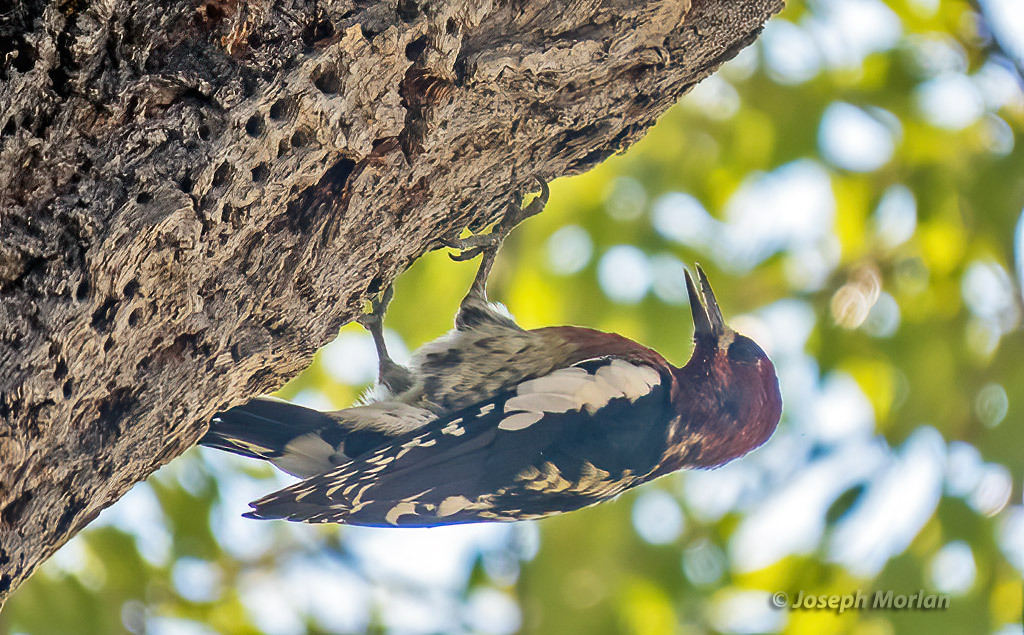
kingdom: Animalia
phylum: Chordata
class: Aves
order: Piciformes
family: Picidae
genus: Sphyrapicus
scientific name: Sphyrapicus ruber
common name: Red-breasted sapsucker
